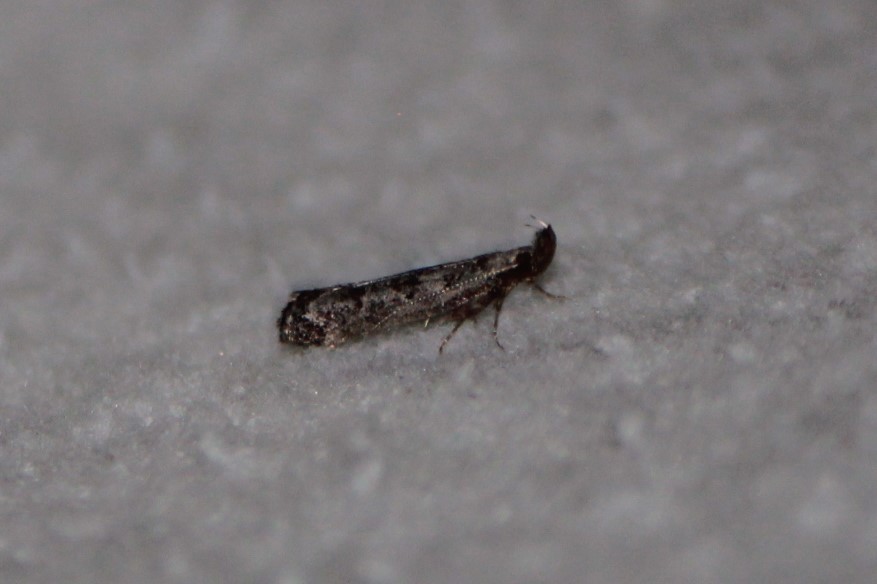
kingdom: Animalia
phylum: Arthropoda
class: Insecta
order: Lepidoptera
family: Gelechiidae
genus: Dichomeris
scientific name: Dichomeris inversella
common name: Inverse dichomeris moth
